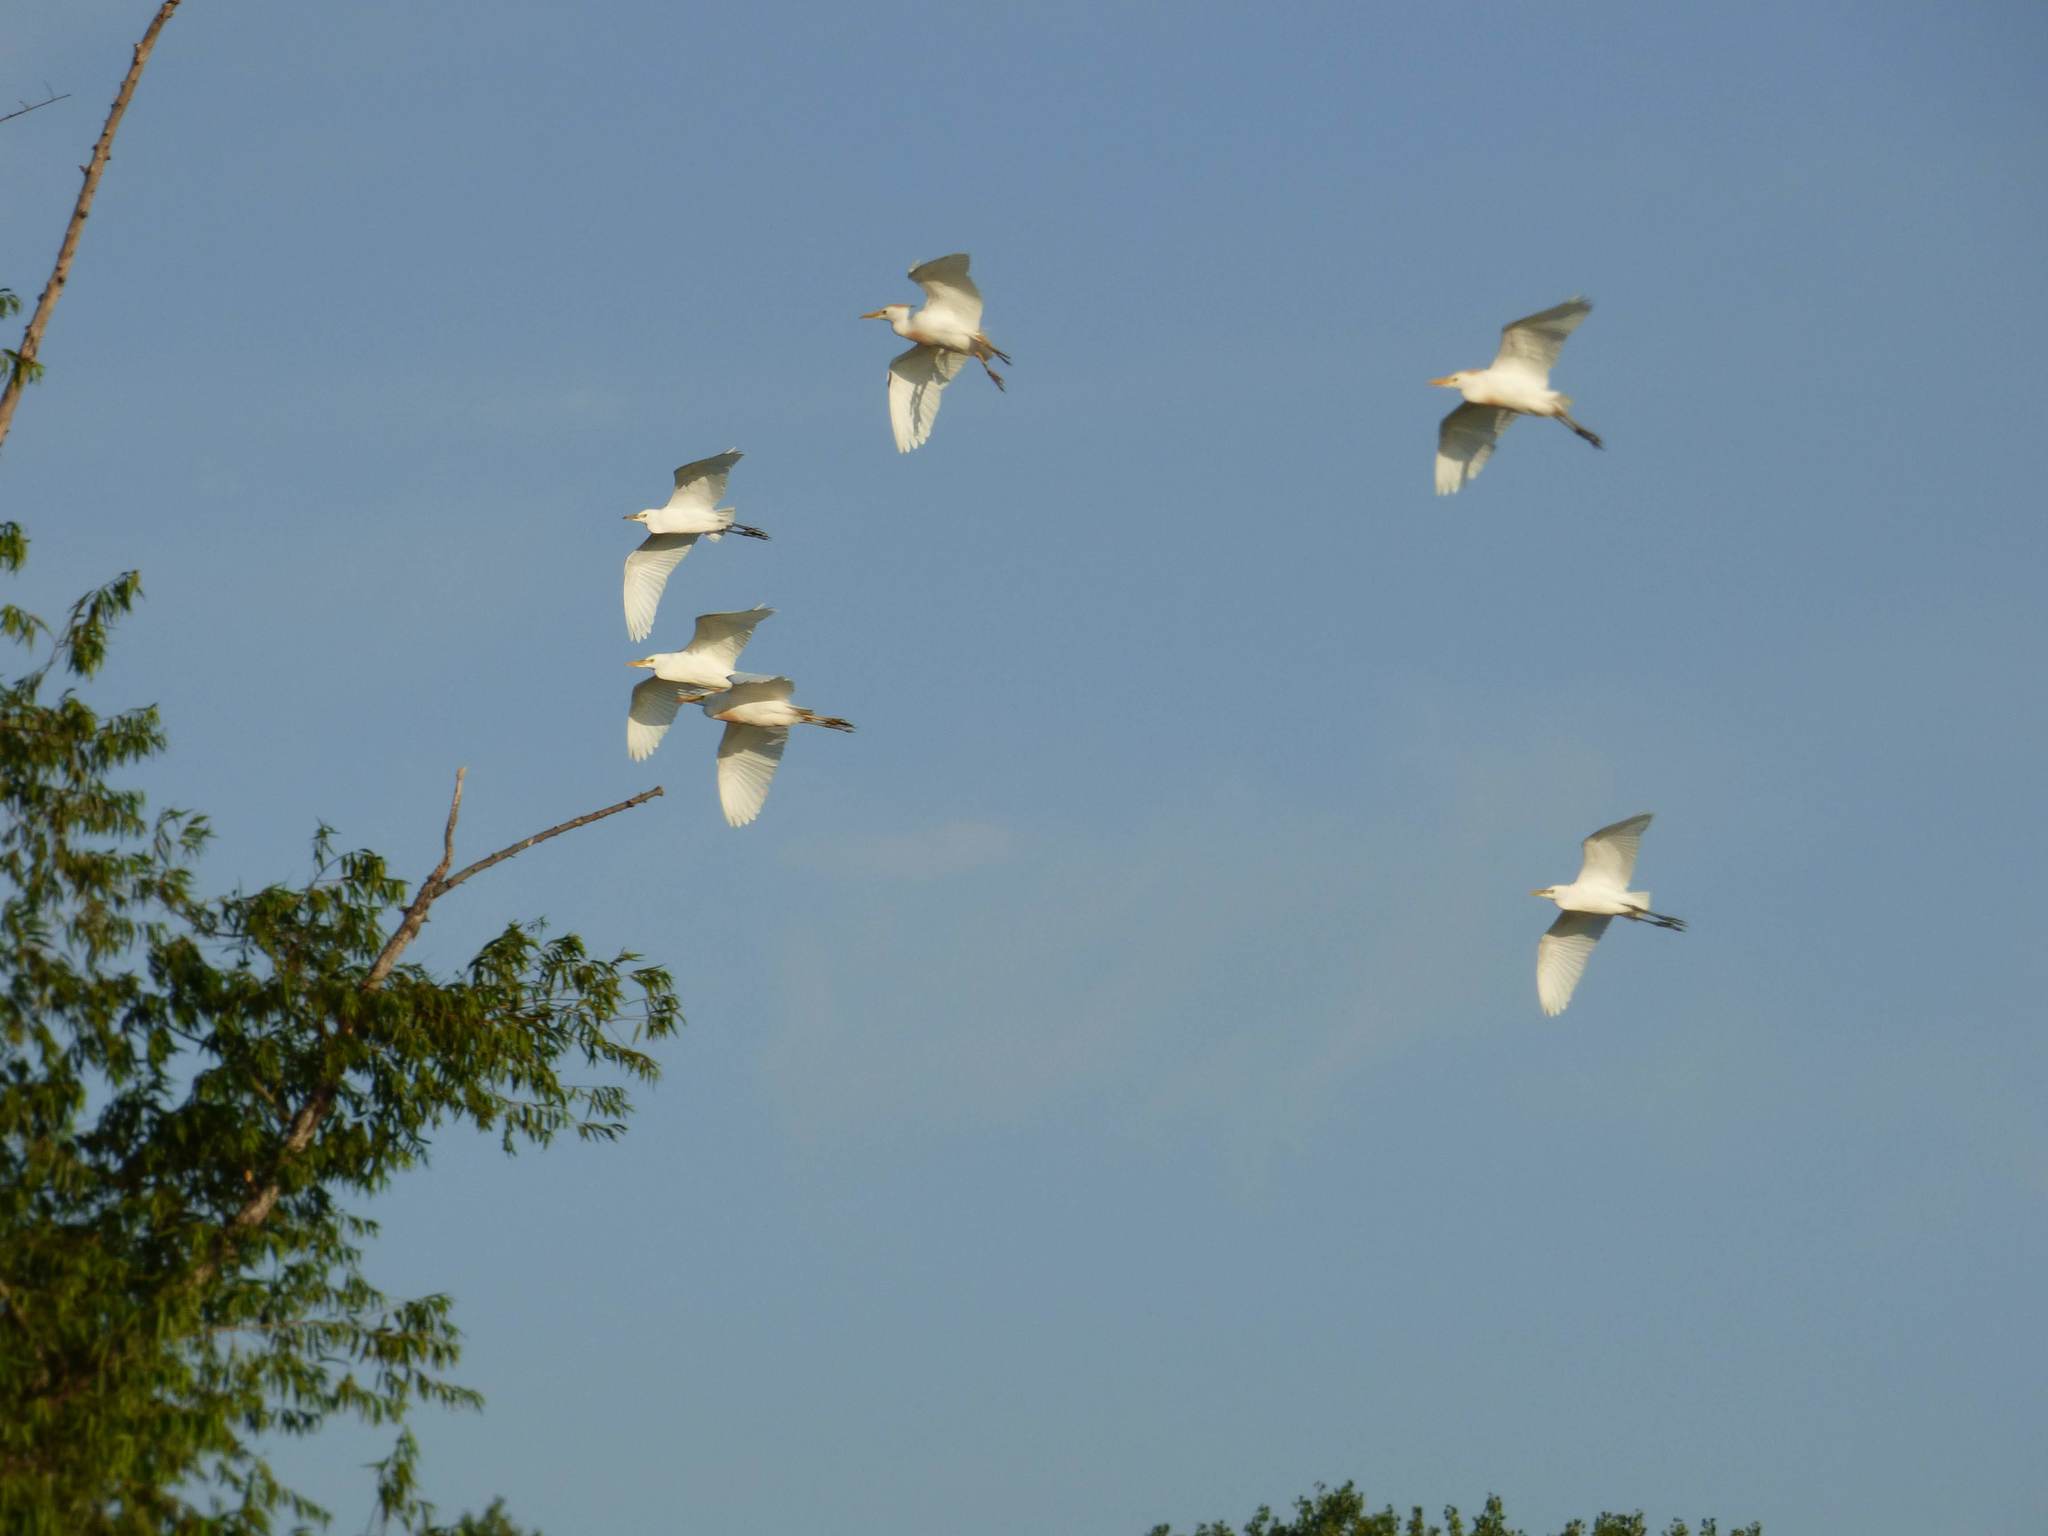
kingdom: Animalia
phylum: Chordata
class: Aves
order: Pelecaniformes
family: Ardeidae
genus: Bubulcus
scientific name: Bubulcus ibis
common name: Cattle egret
